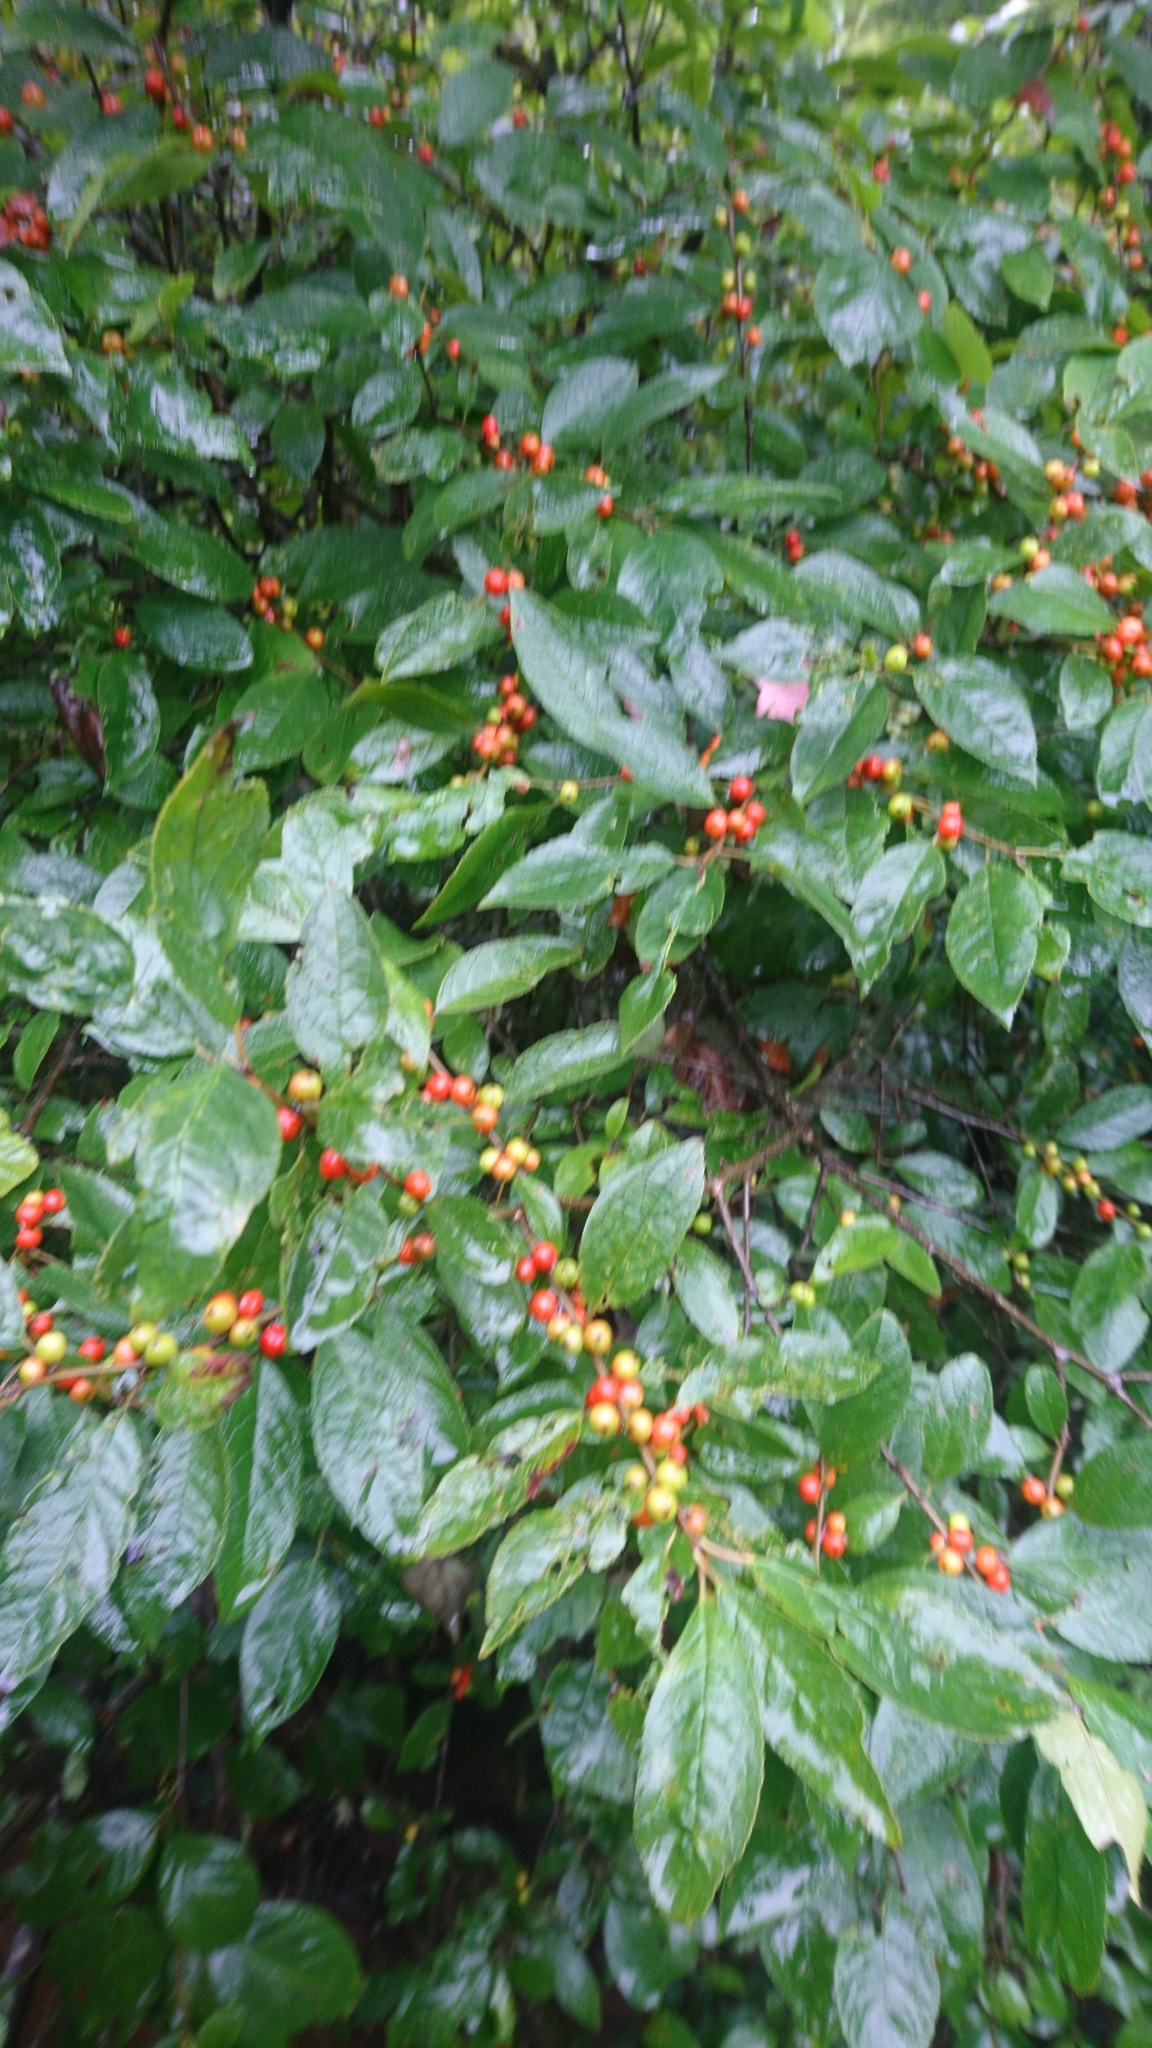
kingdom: Plantae
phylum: Tracheophyta
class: Magnoliopsida
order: Aquifoliales
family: Aquifoliaceae
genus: Ilex
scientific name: Ilex verticillata
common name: Virginia winterberry
